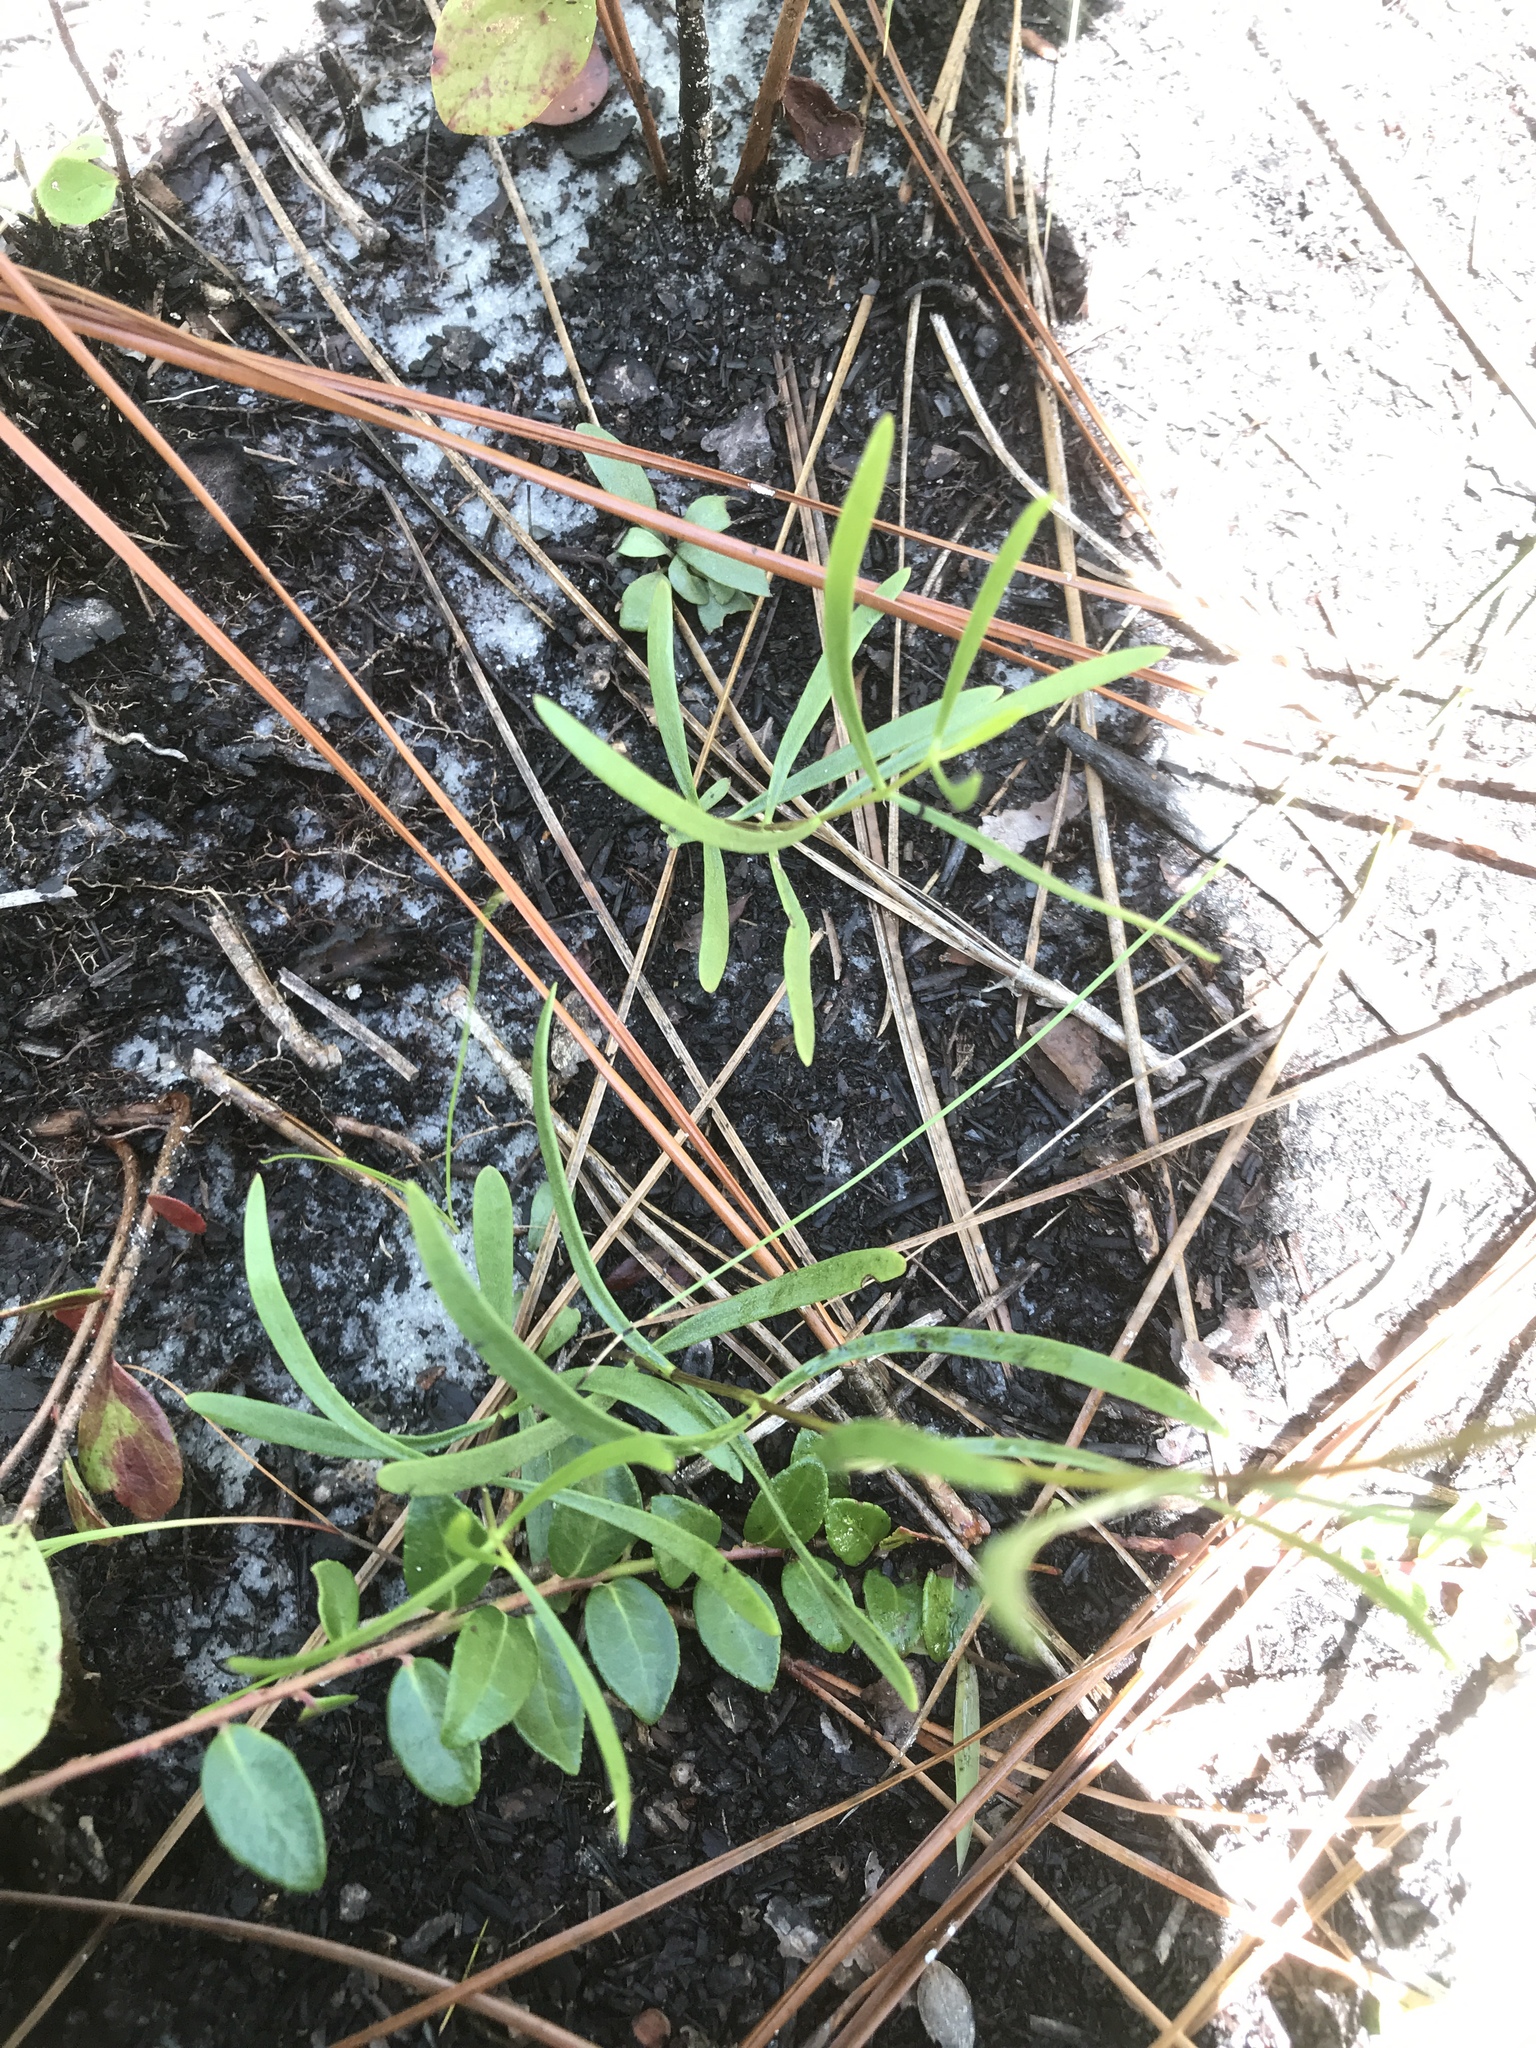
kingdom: Plantae
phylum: Tracheophyta
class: Magnoliopsida
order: Gentianales
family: Gentianaceae
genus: Gentiana
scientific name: Gentiana autumnalis
